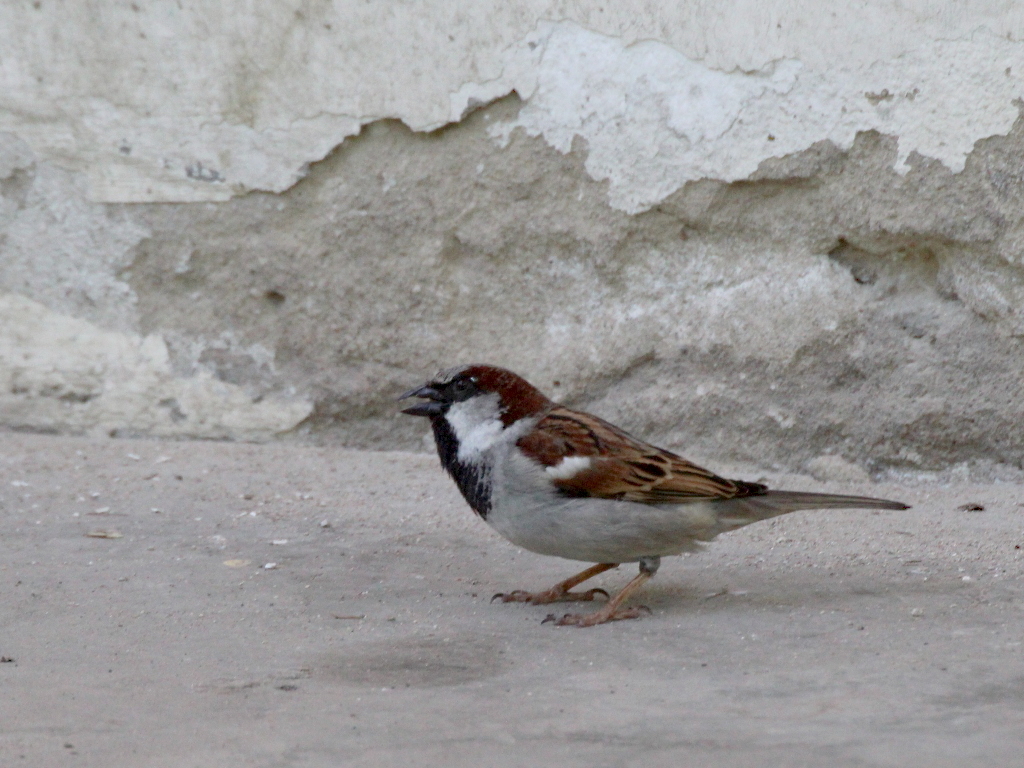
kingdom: Animalia
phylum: Chordata
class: Aves
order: Passeriformes
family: Passeridae
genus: Passer
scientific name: Passer domesticus
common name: House sparrow
